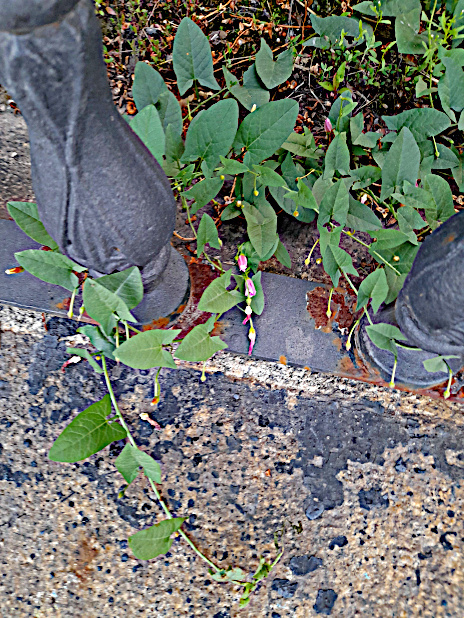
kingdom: Plantae
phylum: Tracheophyta
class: Magnoliopsida
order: Solanales
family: Convolvulaceae
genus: Convolvulus
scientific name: Convolvulus arvensis
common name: Field bindweed
